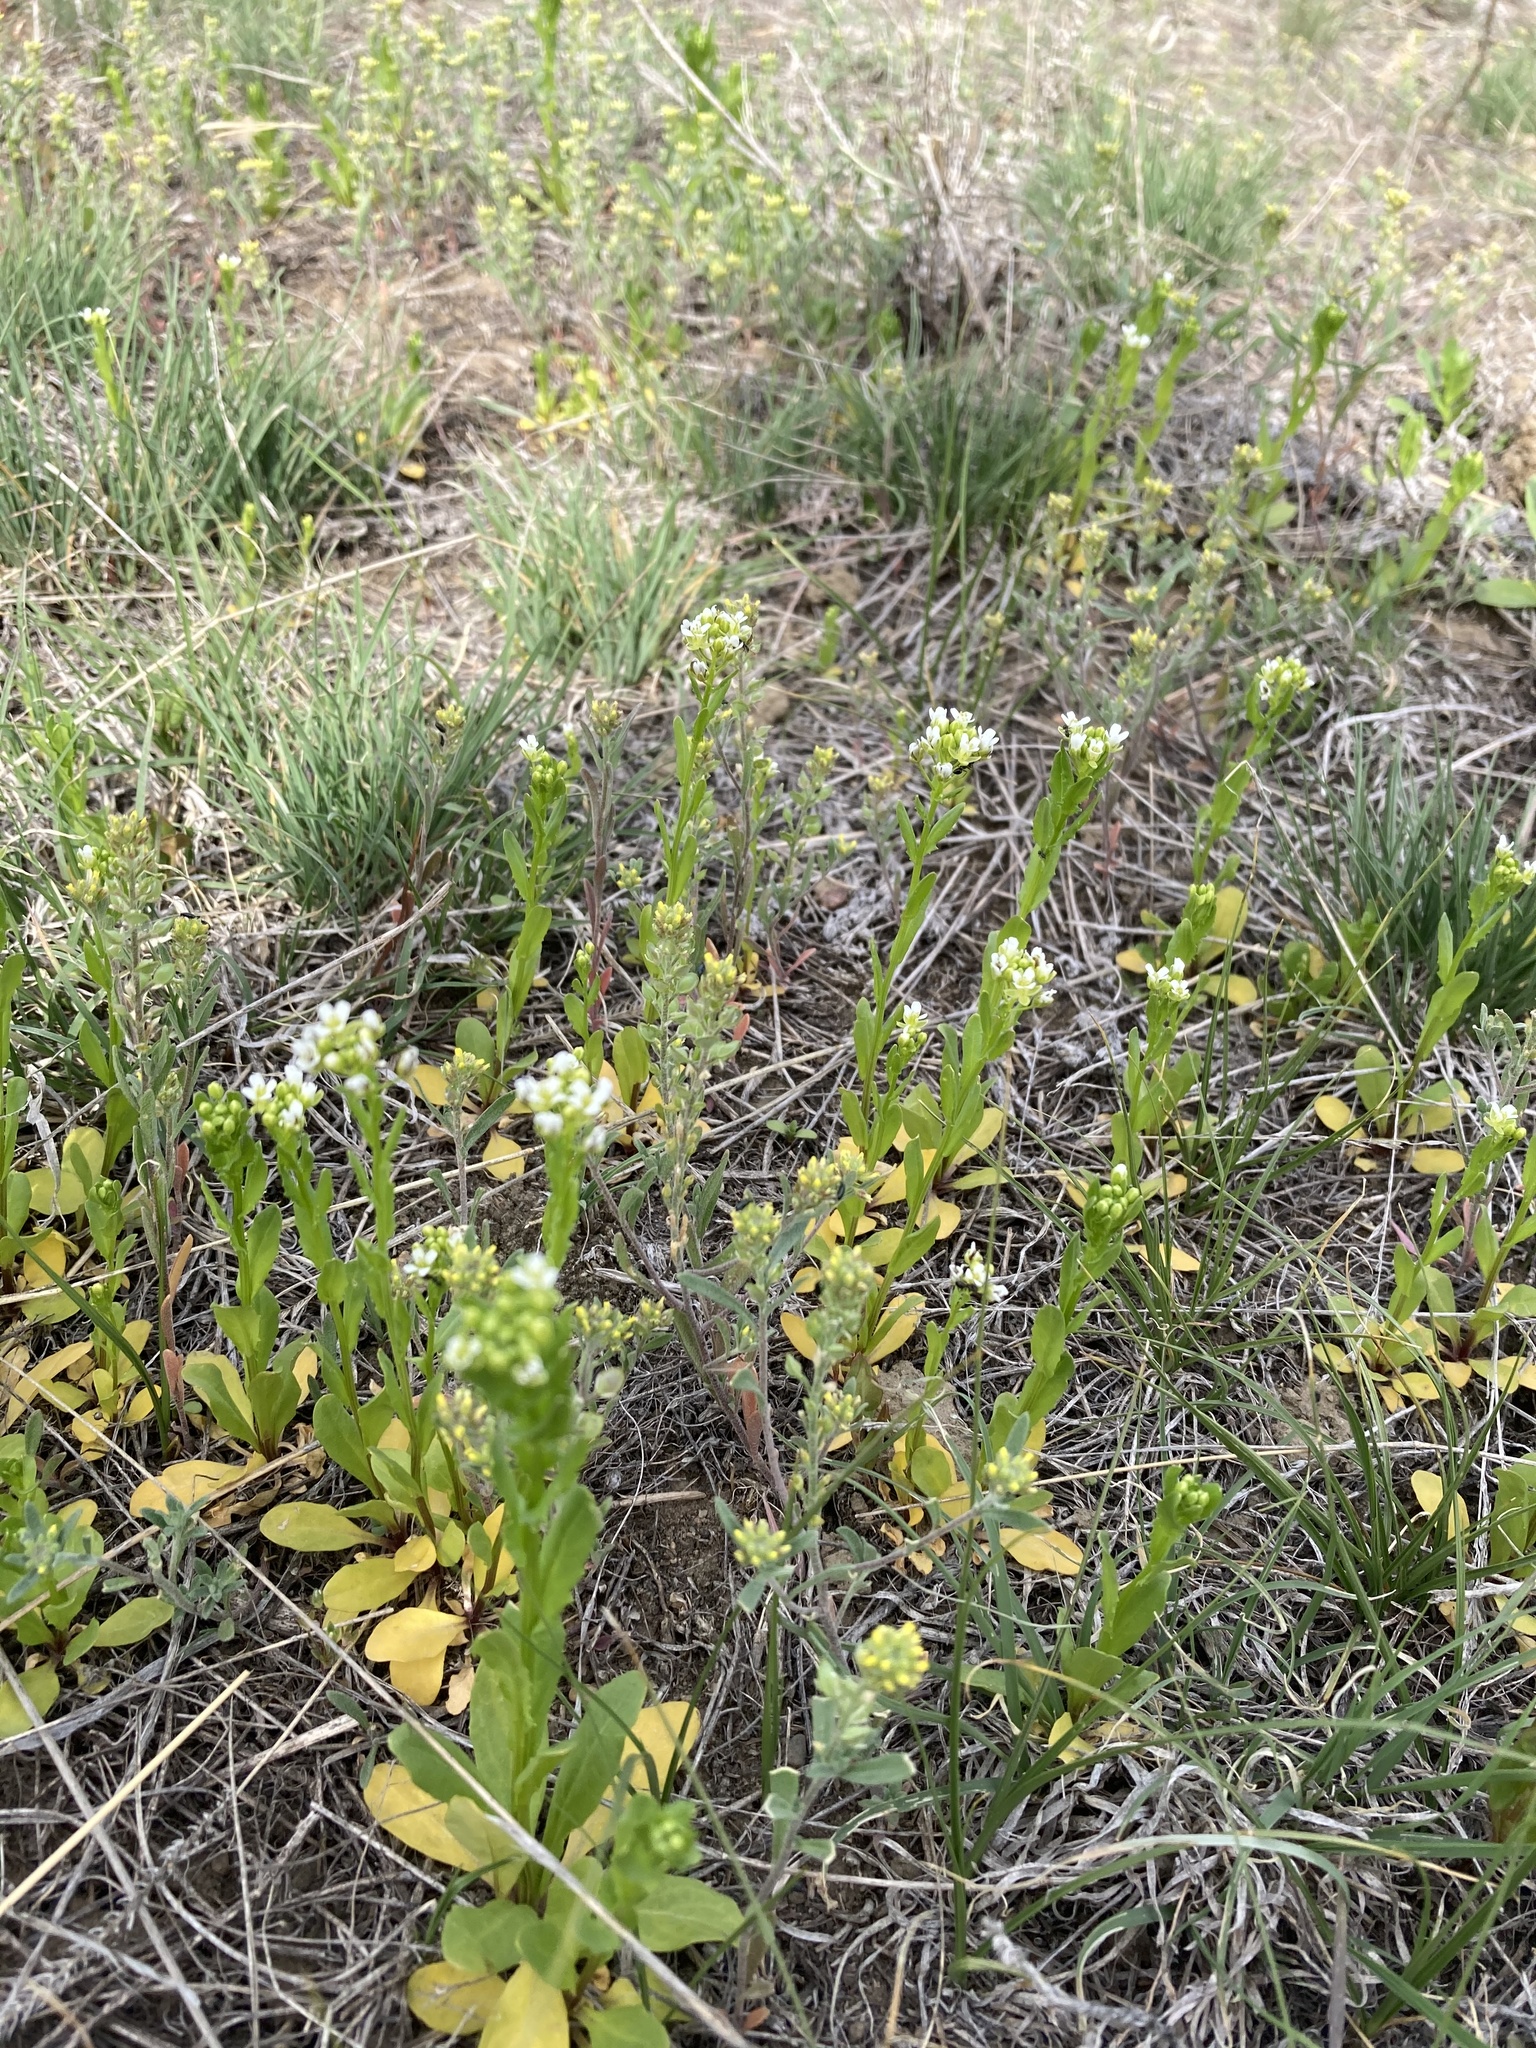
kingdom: Plantae
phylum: Tracheophyta
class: Magnoliopsida
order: Brassicales
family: Brassicaceae
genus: Thlaspi
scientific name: Thlaspi arvense
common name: Field pennycress
